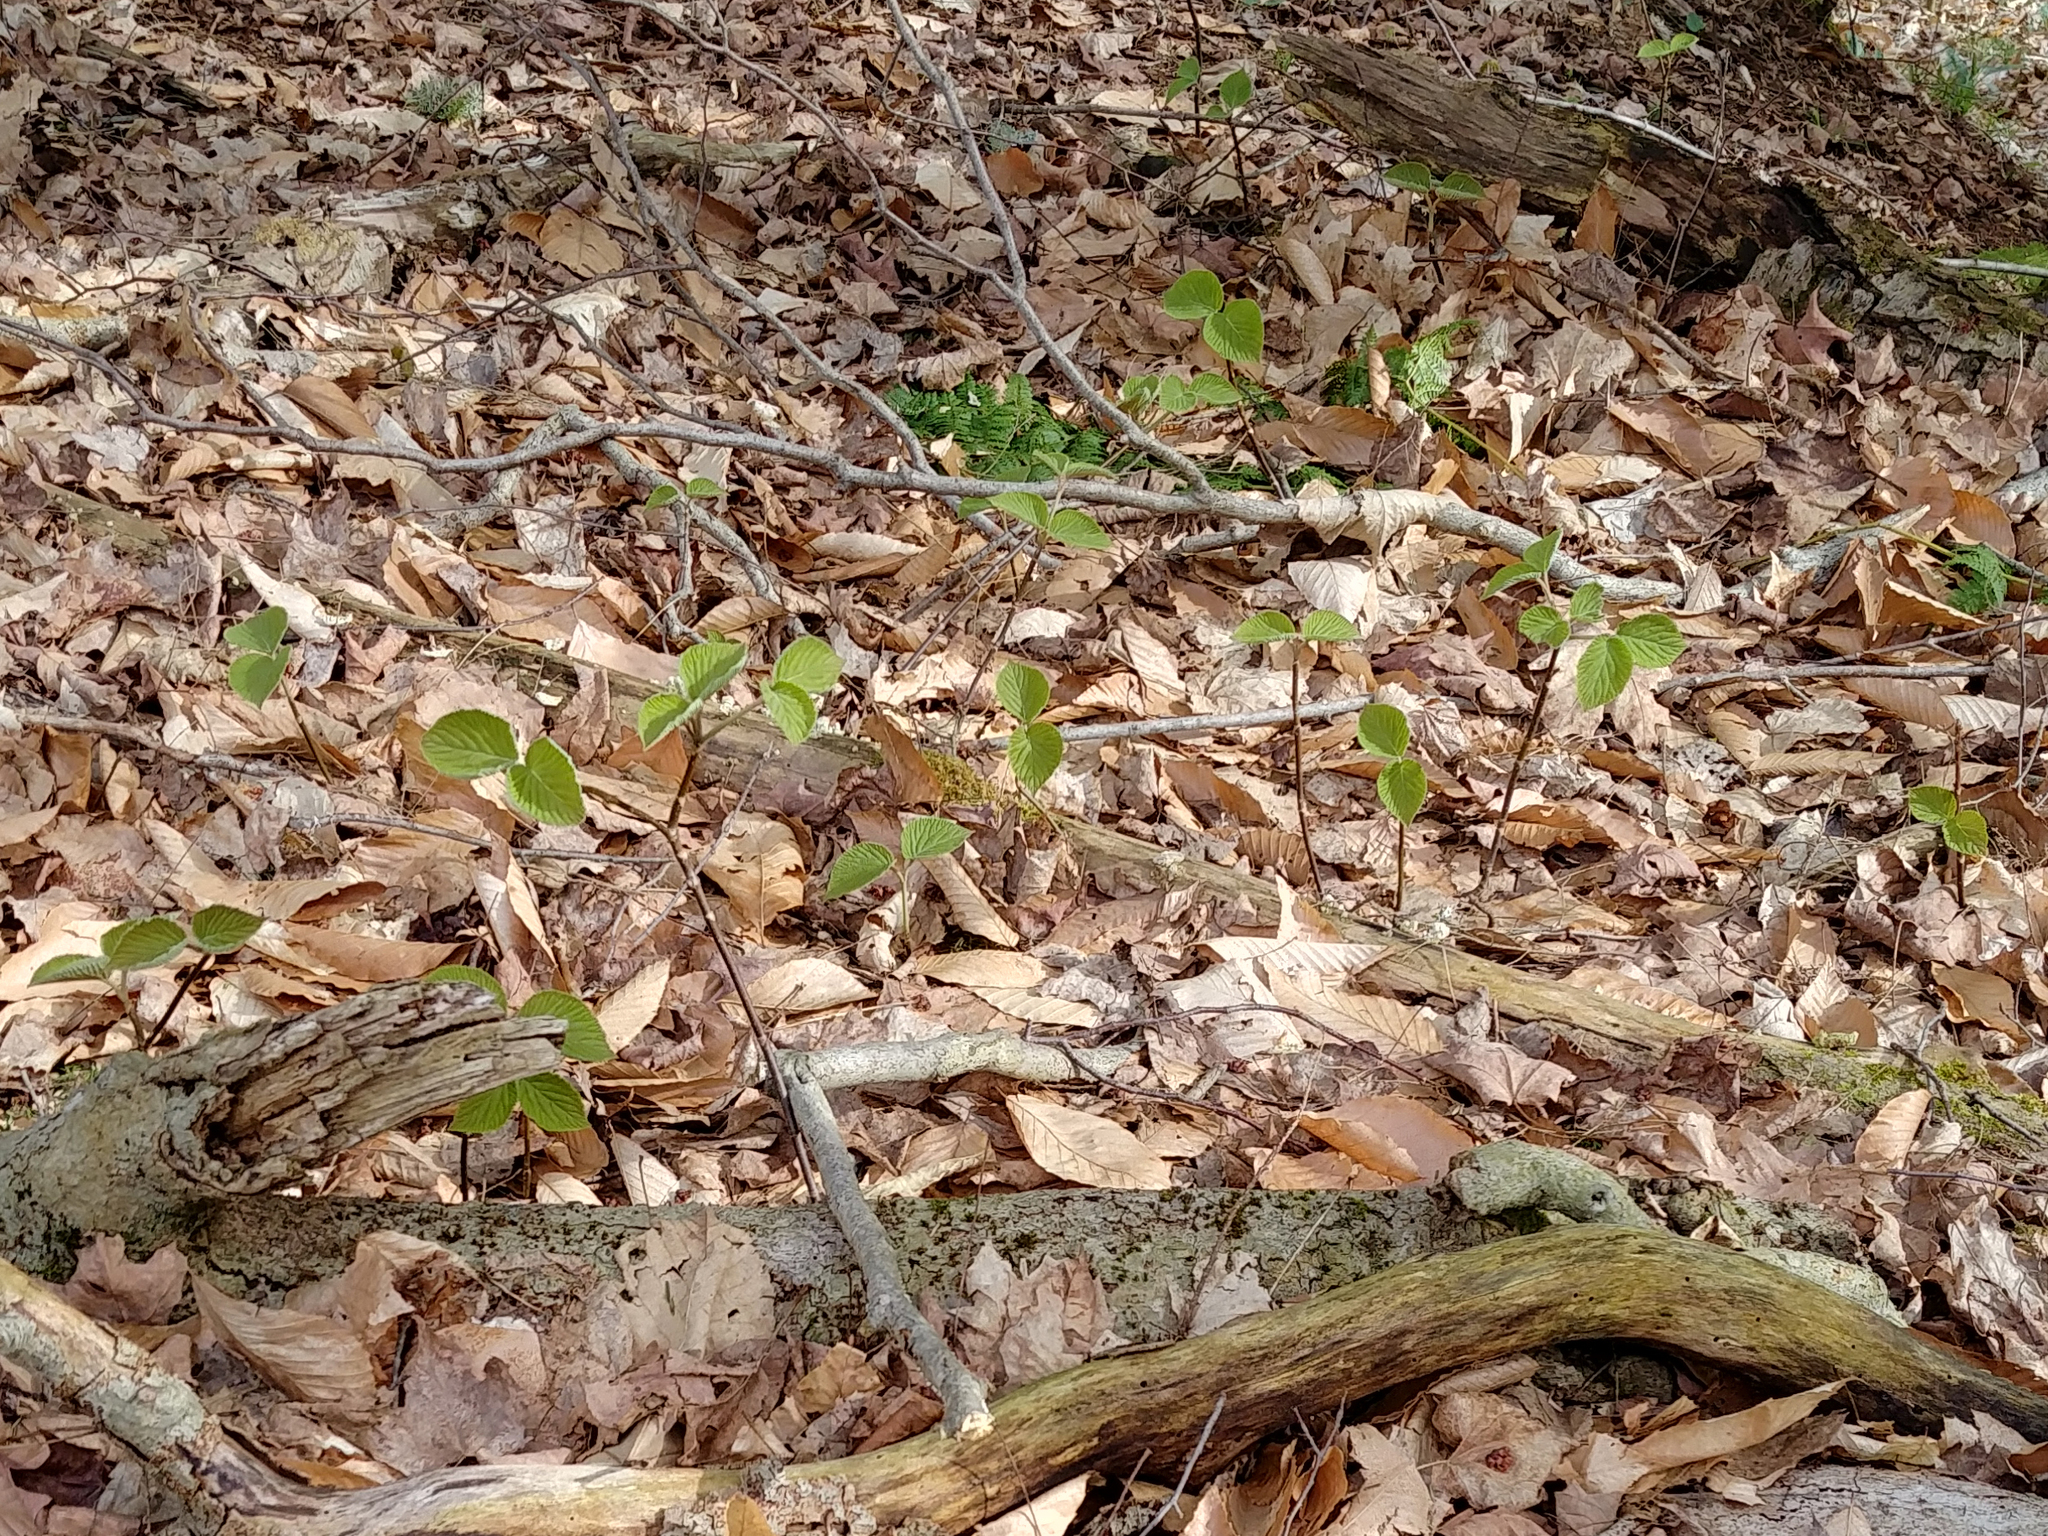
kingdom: Plantae
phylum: Tracheophyta
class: Magnoliopsida
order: Dipsacales
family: Viburnaceae
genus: Viburnum
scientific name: Viburnum lantanoides
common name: Hobblebush
